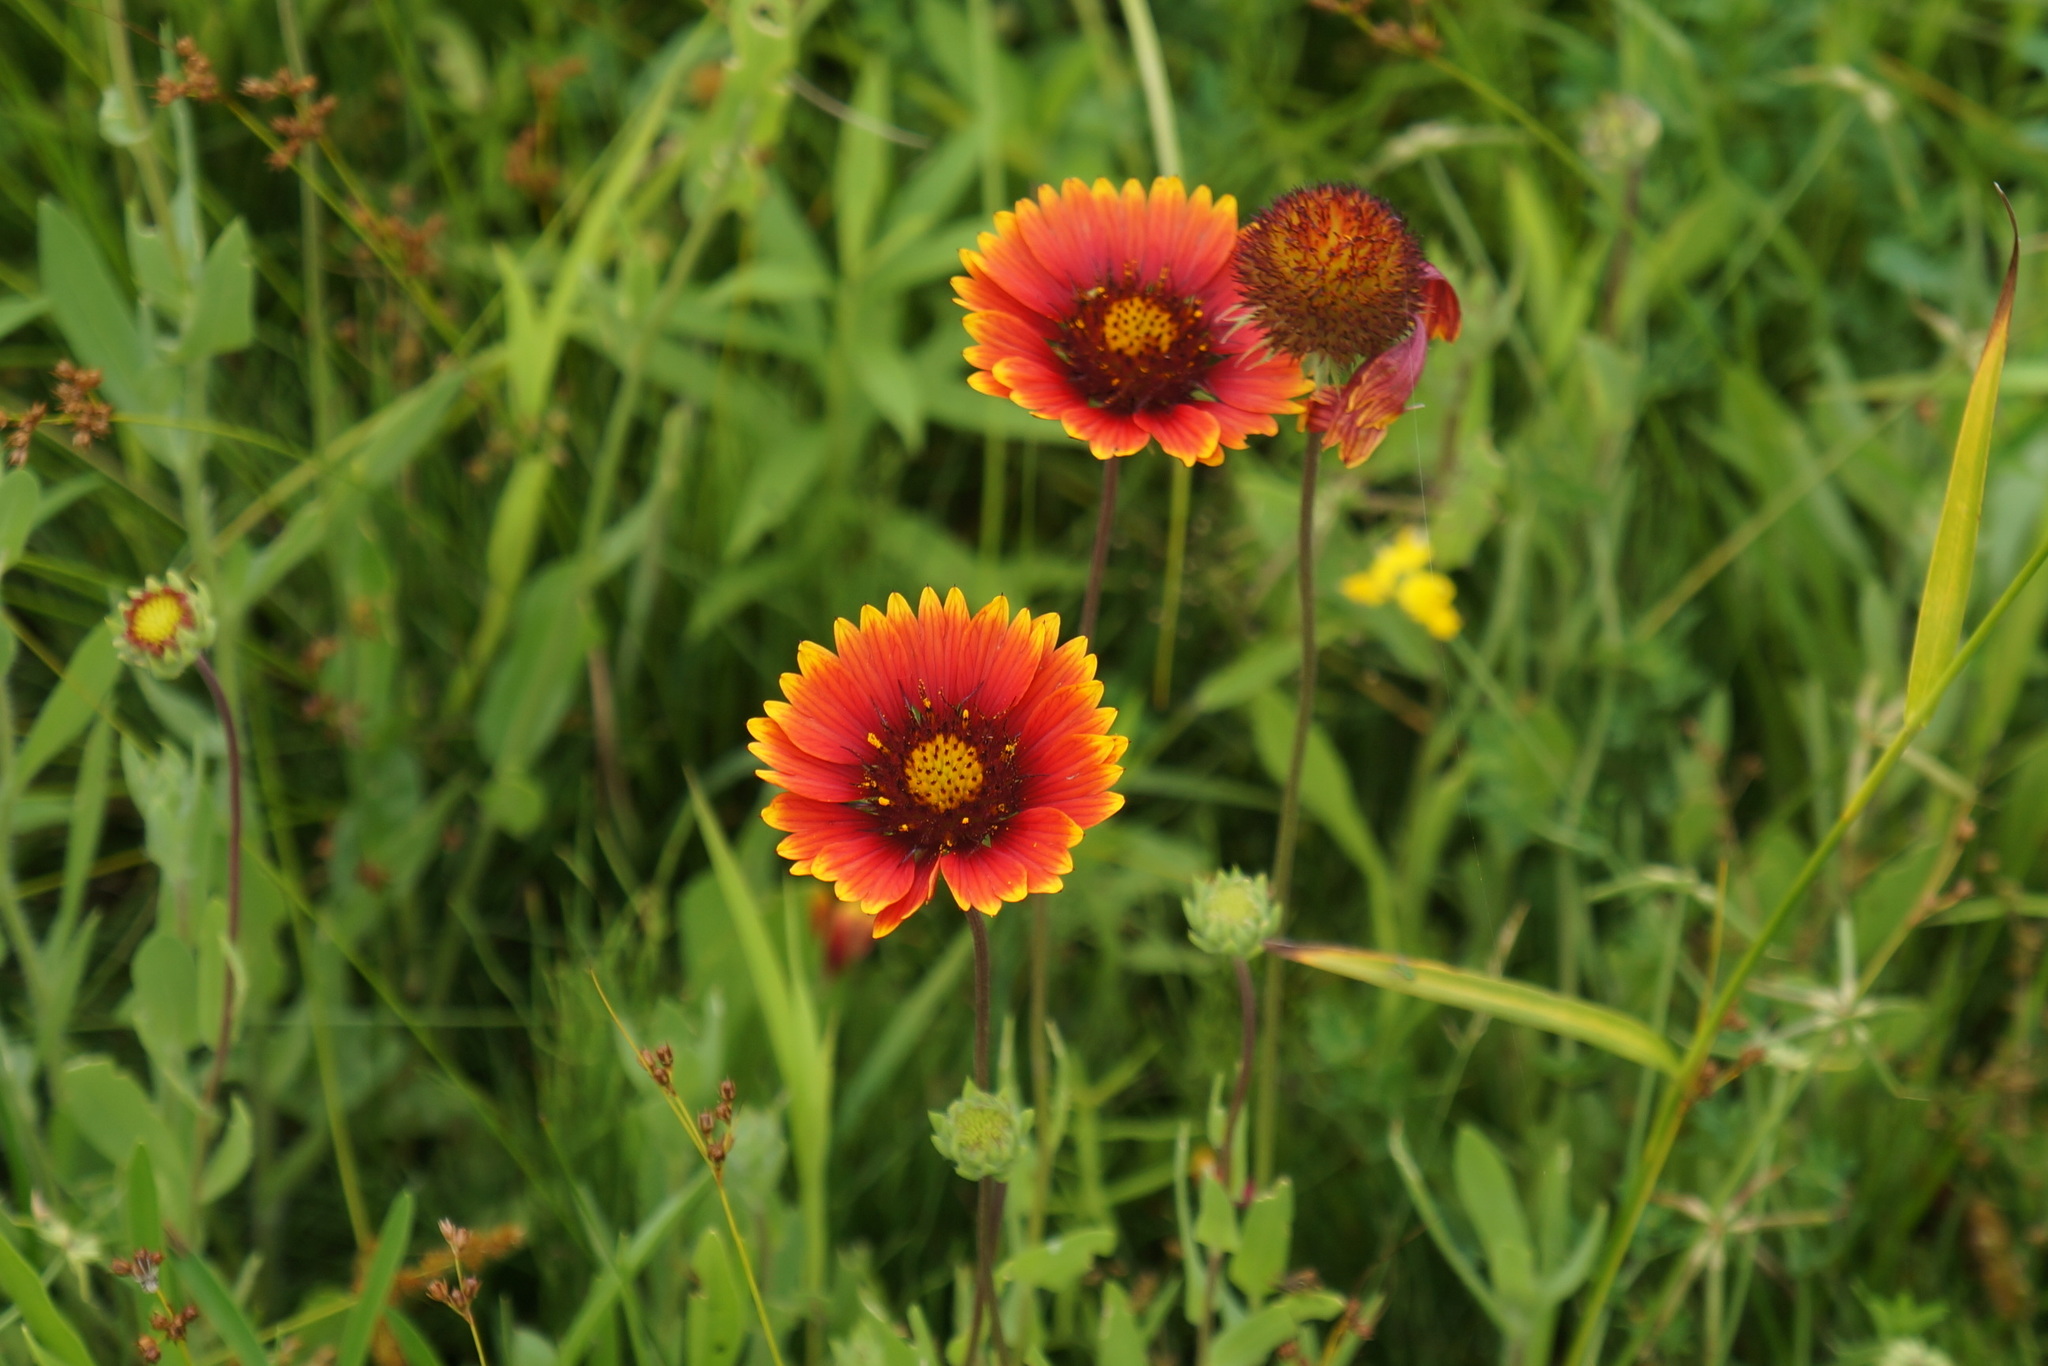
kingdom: Plantae
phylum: Tracheophyta
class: Magnoliopsida
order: Asterales
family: Asteraceae
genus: Gaillardia
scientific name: Gaillardia pulchella
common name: Firewheel
